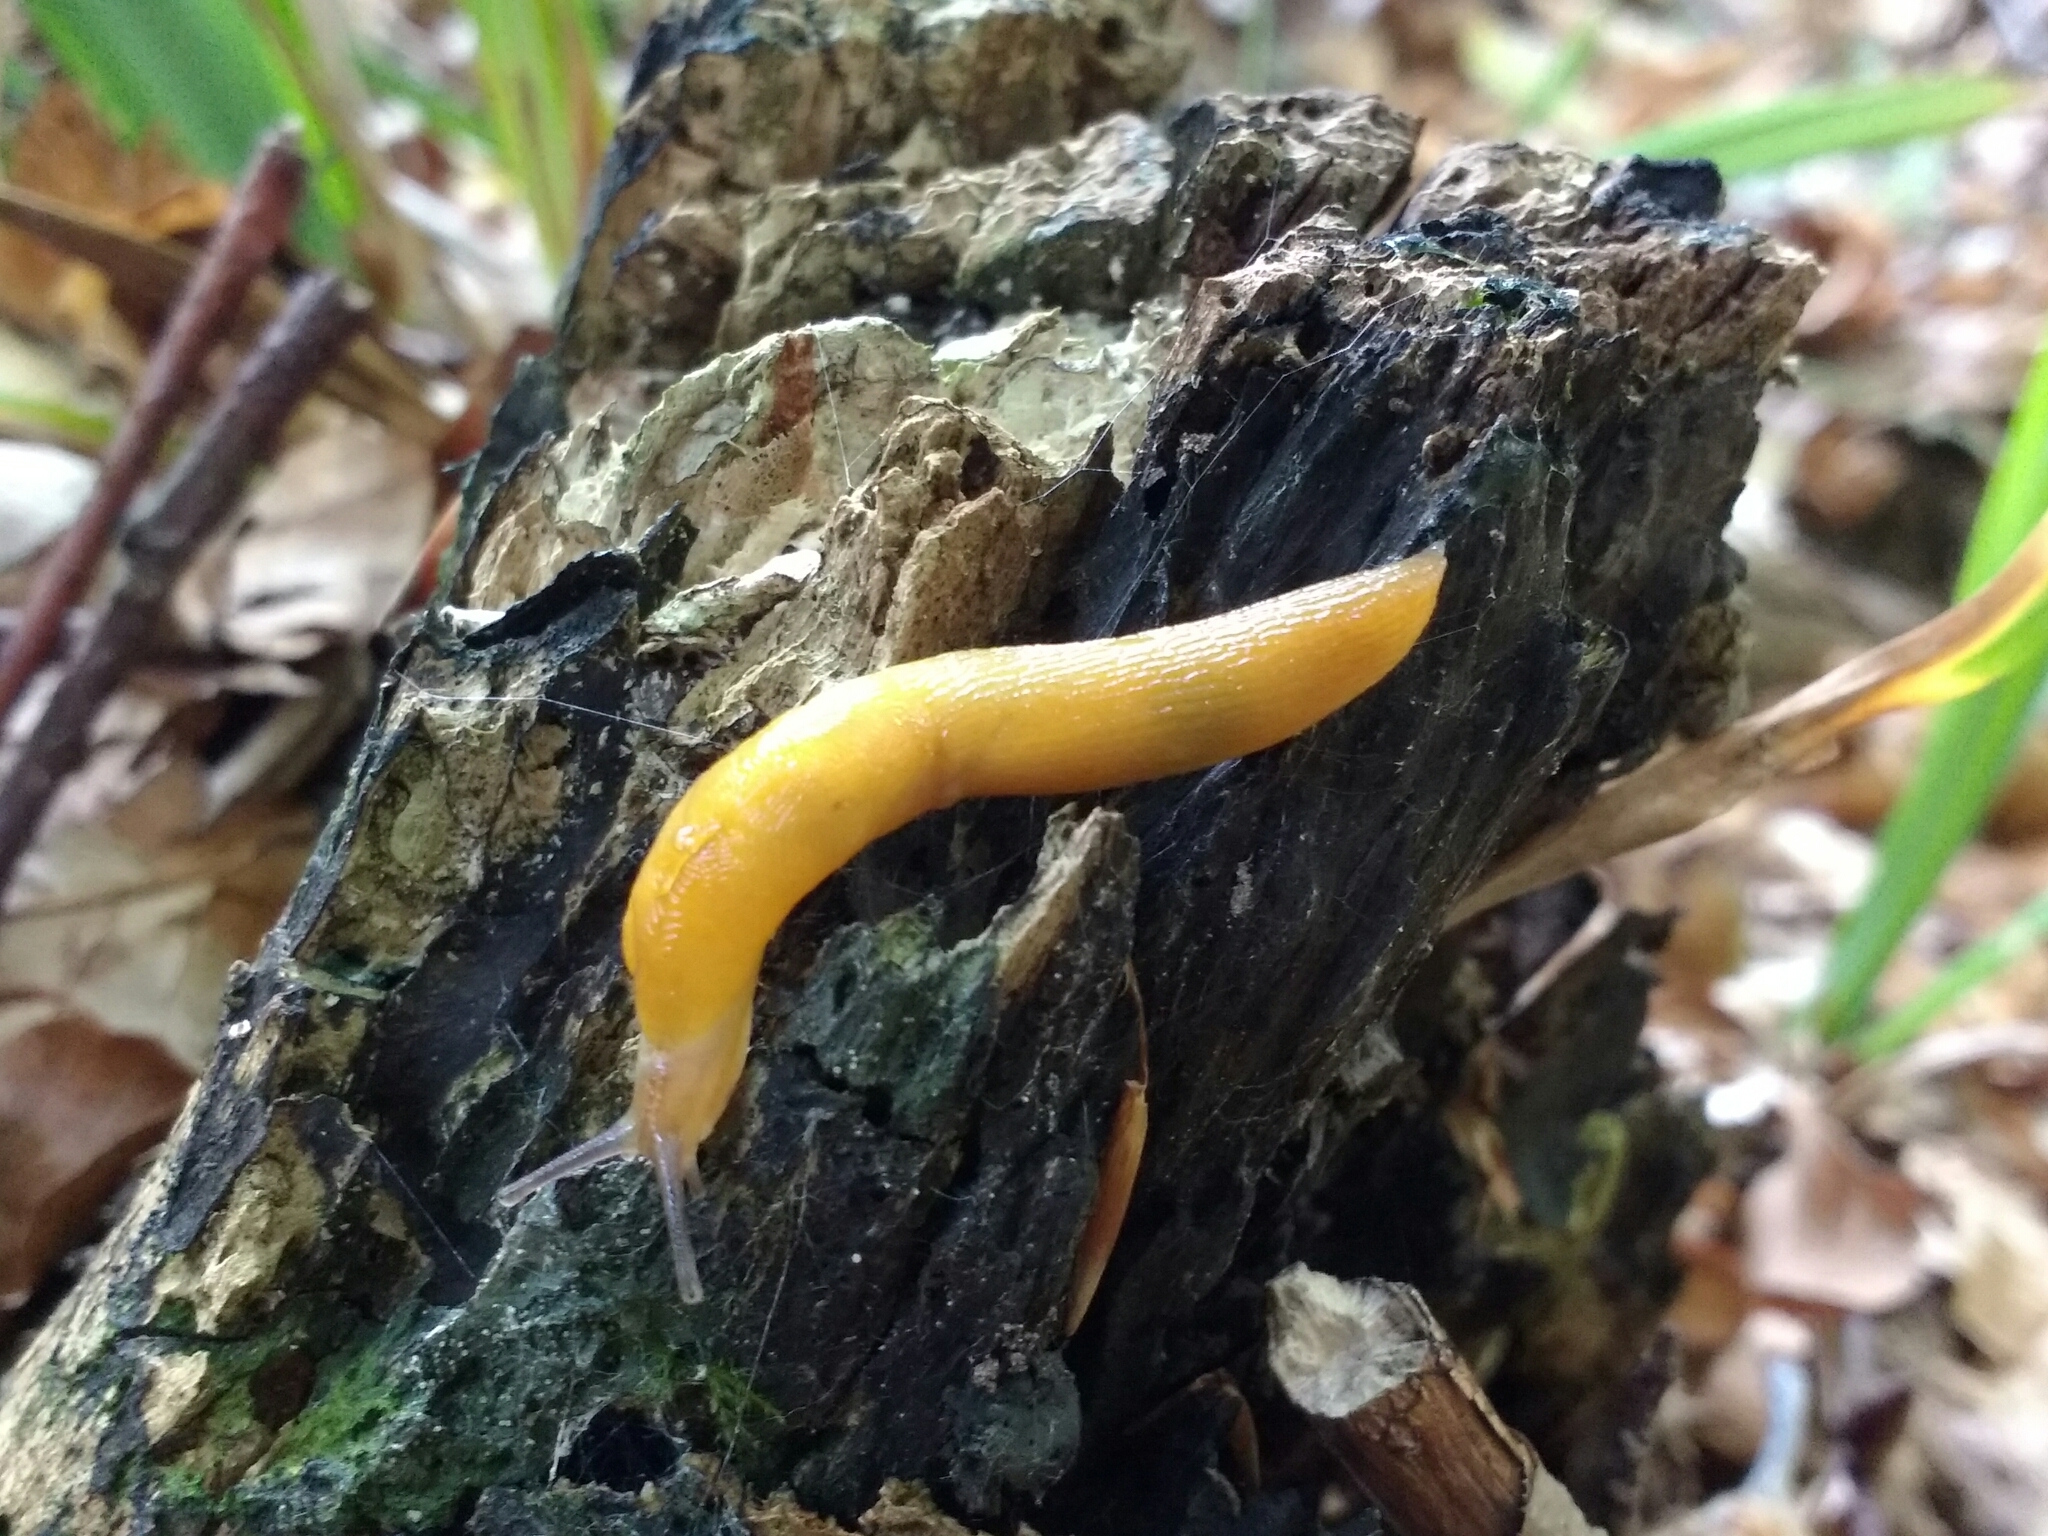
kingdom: Animalia
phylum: Mollusca
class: Gastropoda
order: Stylommatophora
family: Limacidae
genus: Malacolimax
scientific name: Malacolimax tenellus
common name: Lemon slug
